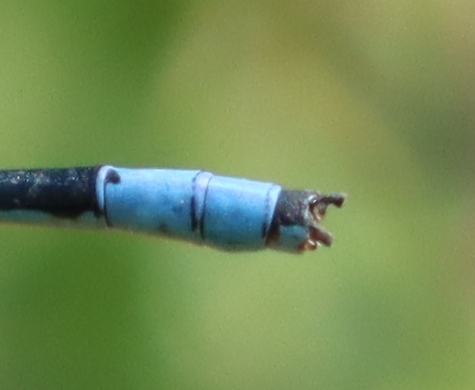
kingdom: Animalia
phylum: Arthropoda
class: Insecta
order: Odonata
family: Coenagrionidae
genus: Enallagma
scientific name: Enallagma basidens
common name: Double-striped bluet
